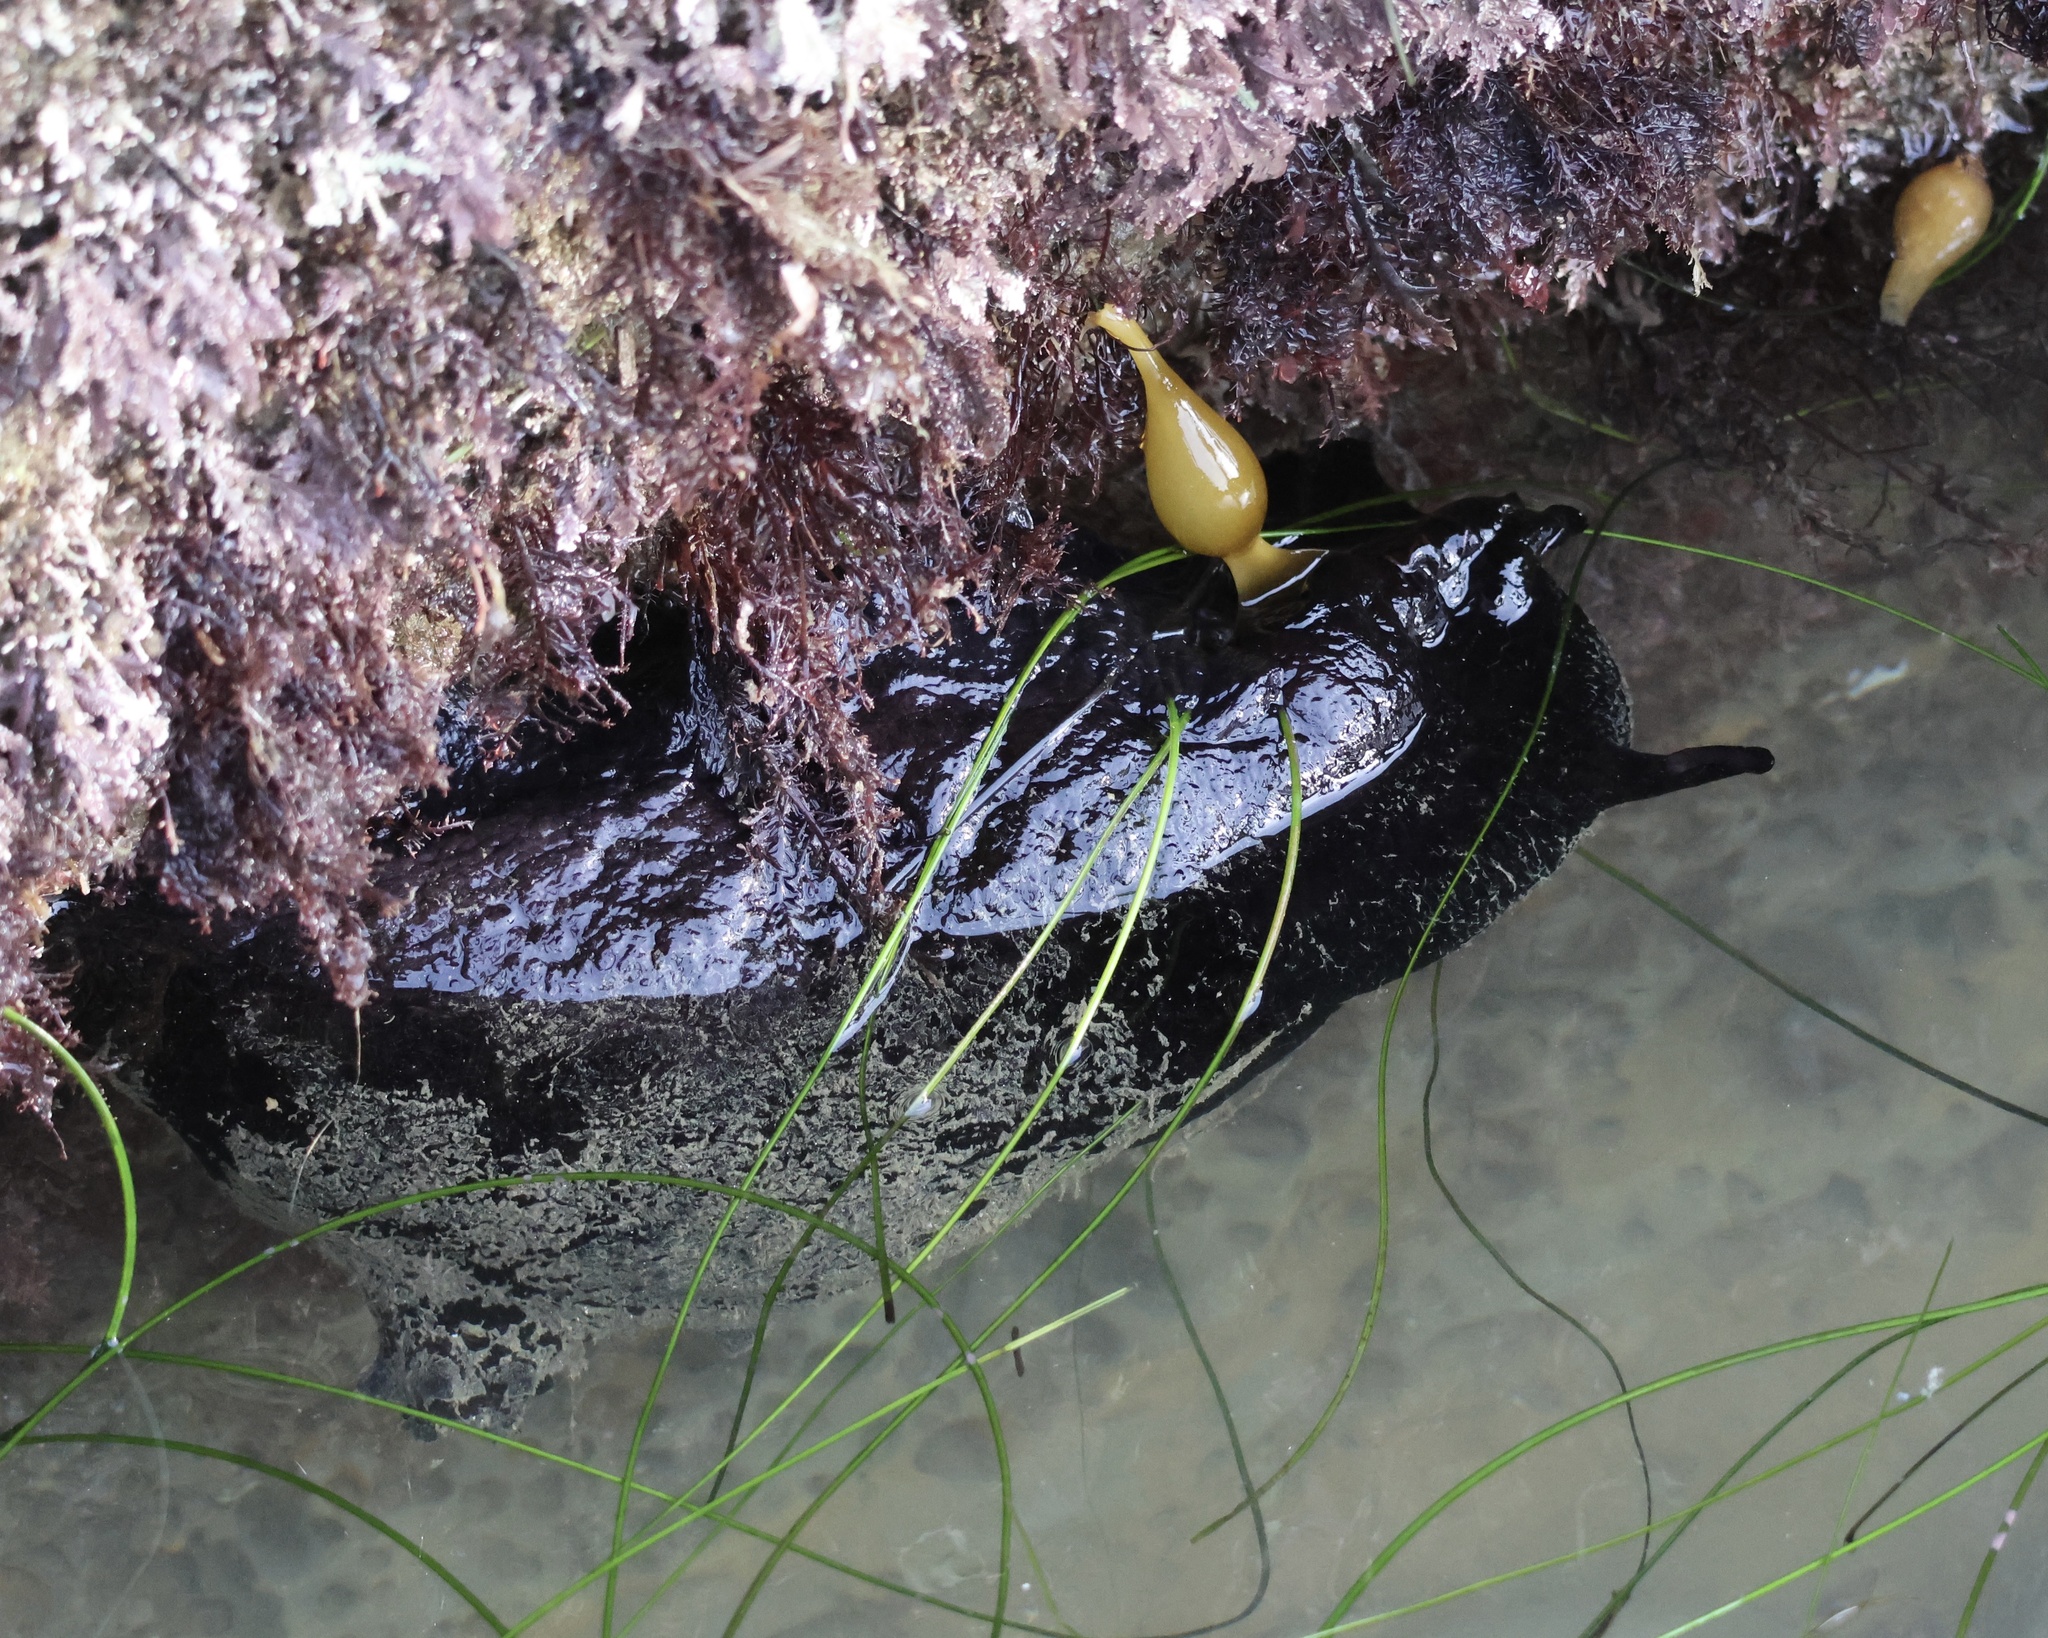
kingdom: Animalia
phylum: Mollusca
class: Gastropoda
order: Aplysiida
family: Aplysiidae
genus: Aplysia
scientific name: Aplysia vaccaria
